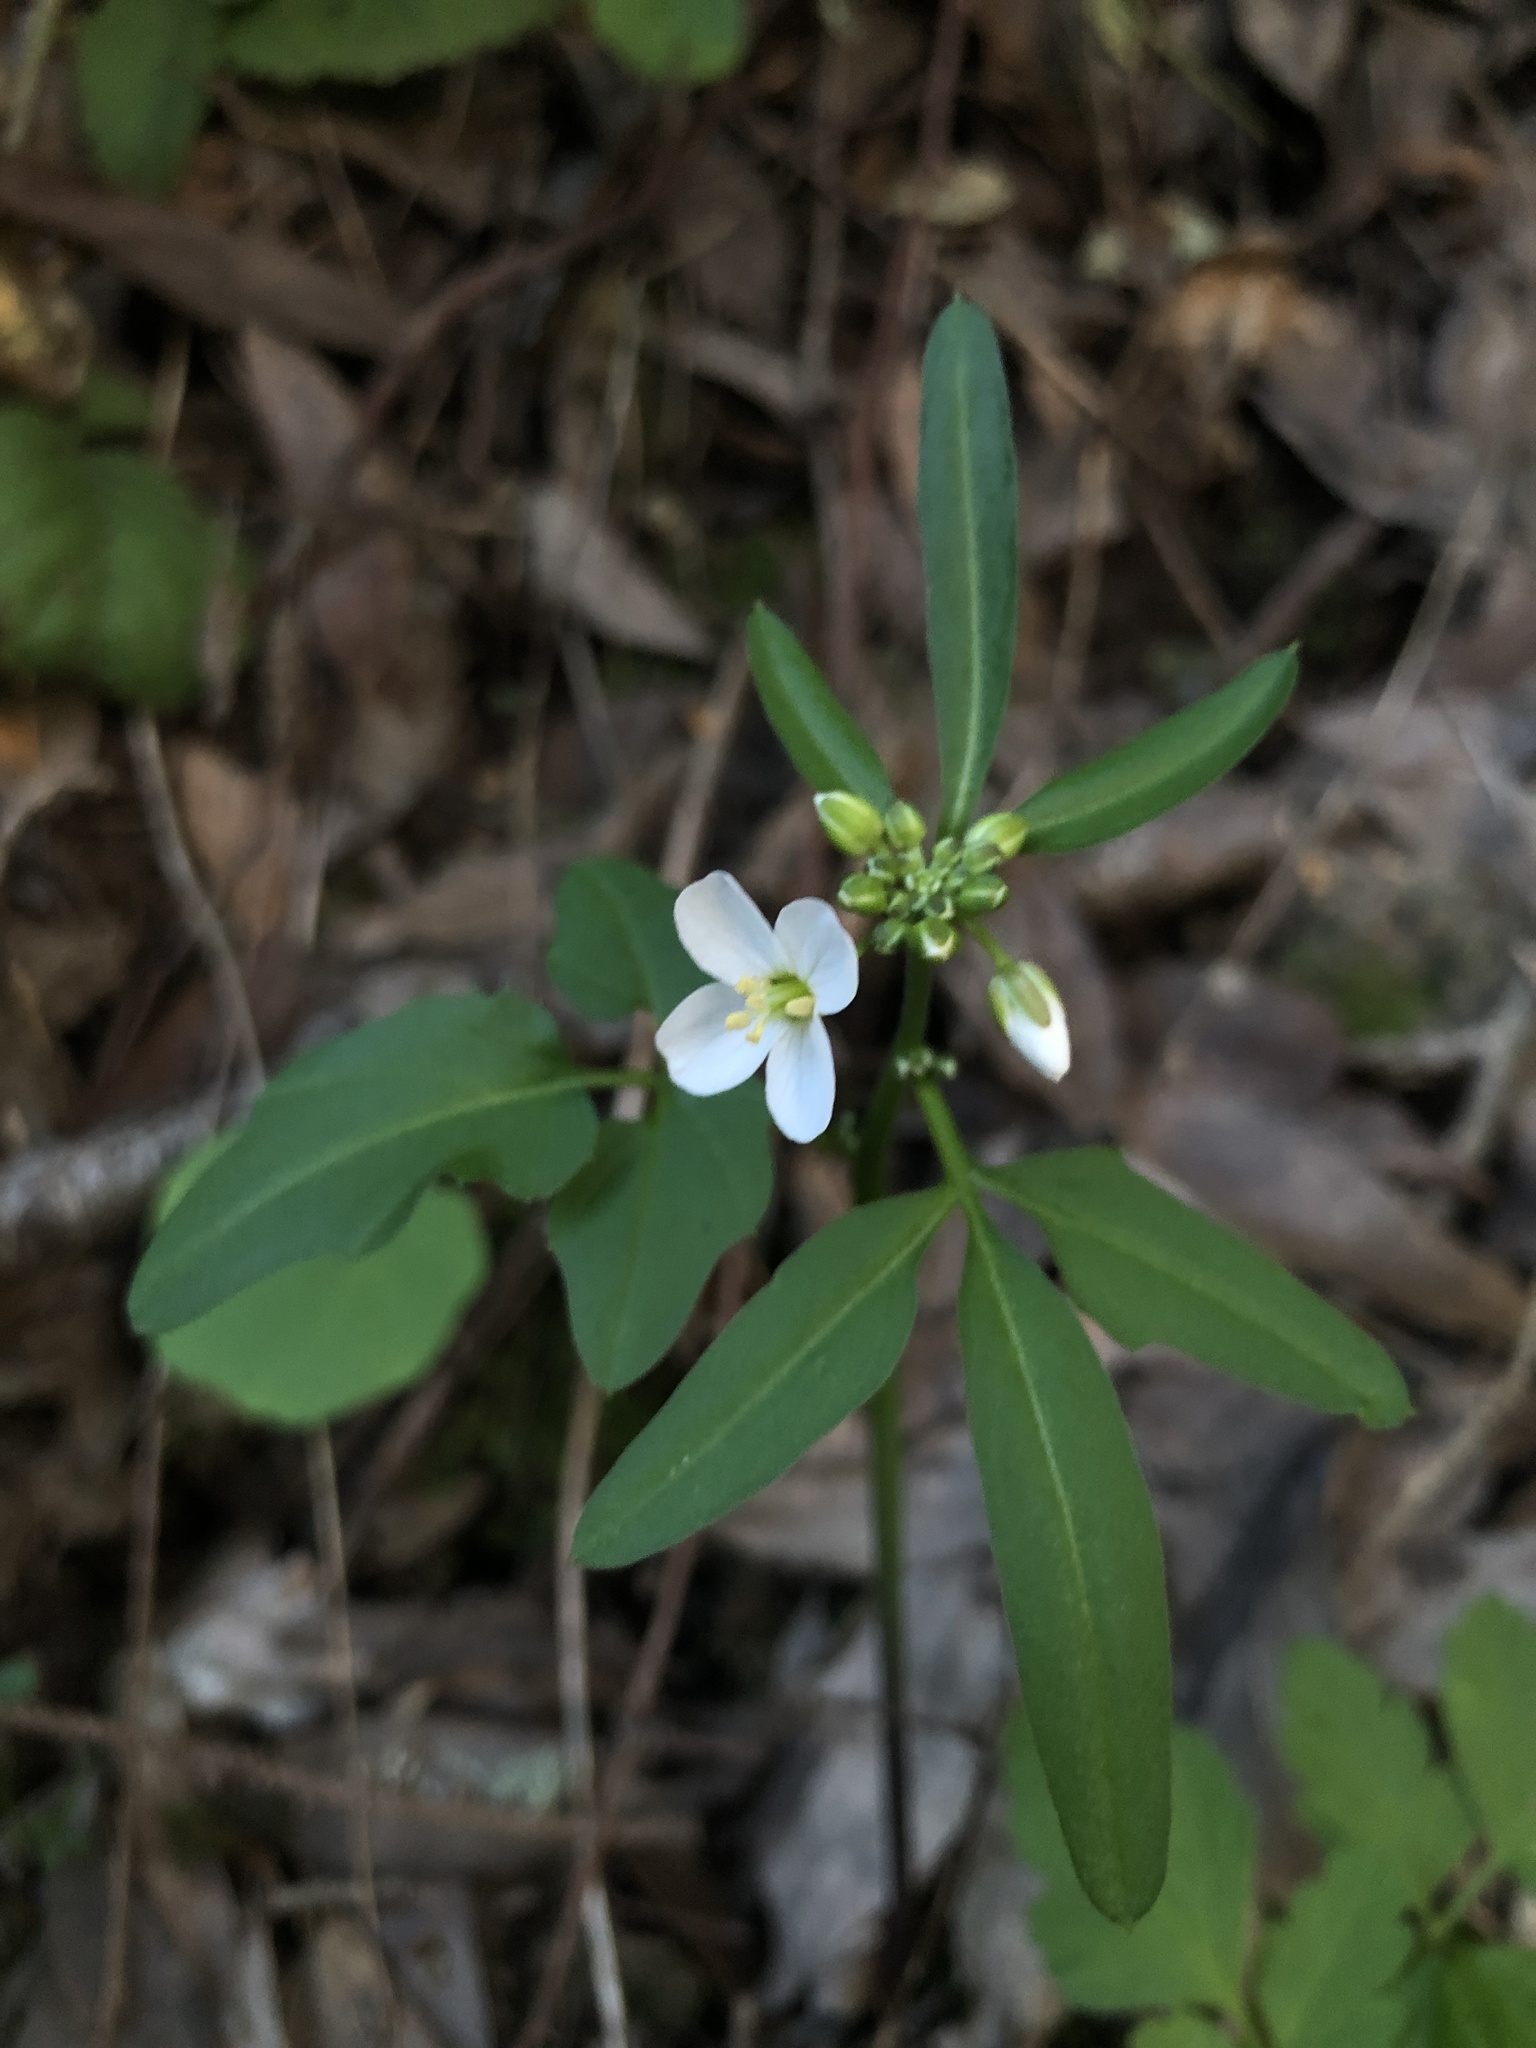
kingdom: Plantae
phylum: Tracheophyta
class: Magnoliopsida
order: Brassicales
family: Brassicaceae
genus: Cardamine
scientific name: Cardamine californica
